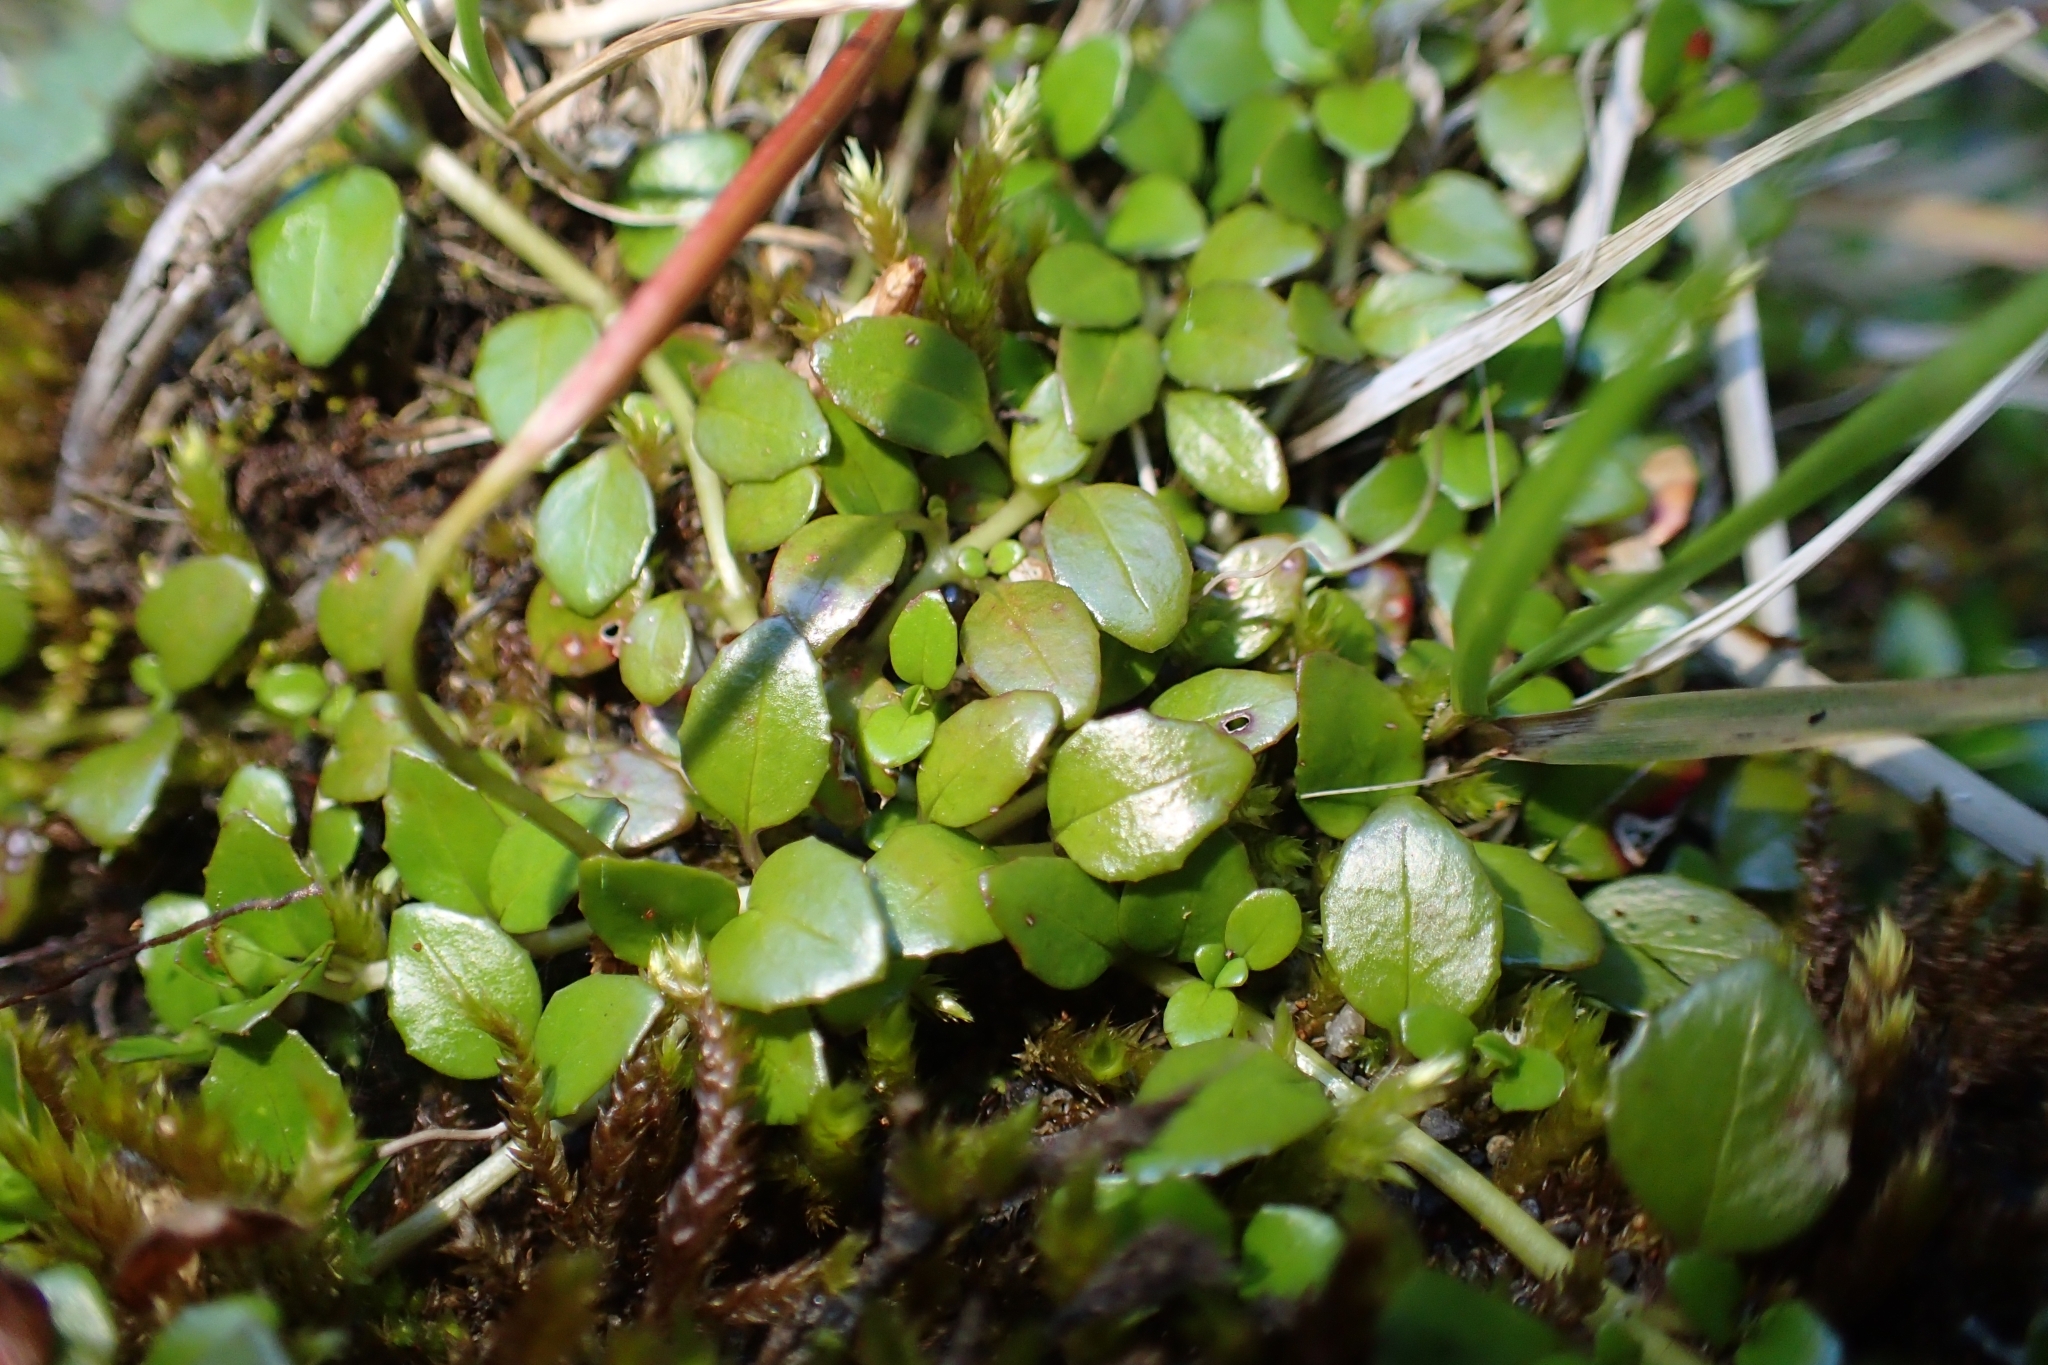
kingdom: Plantae
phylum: Tracheophyta
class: Magnoliopsida
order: Myrtales
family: Onagraceae
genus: Epilobium
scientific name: Epilobium brunnescens
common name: New zealand willowherb
